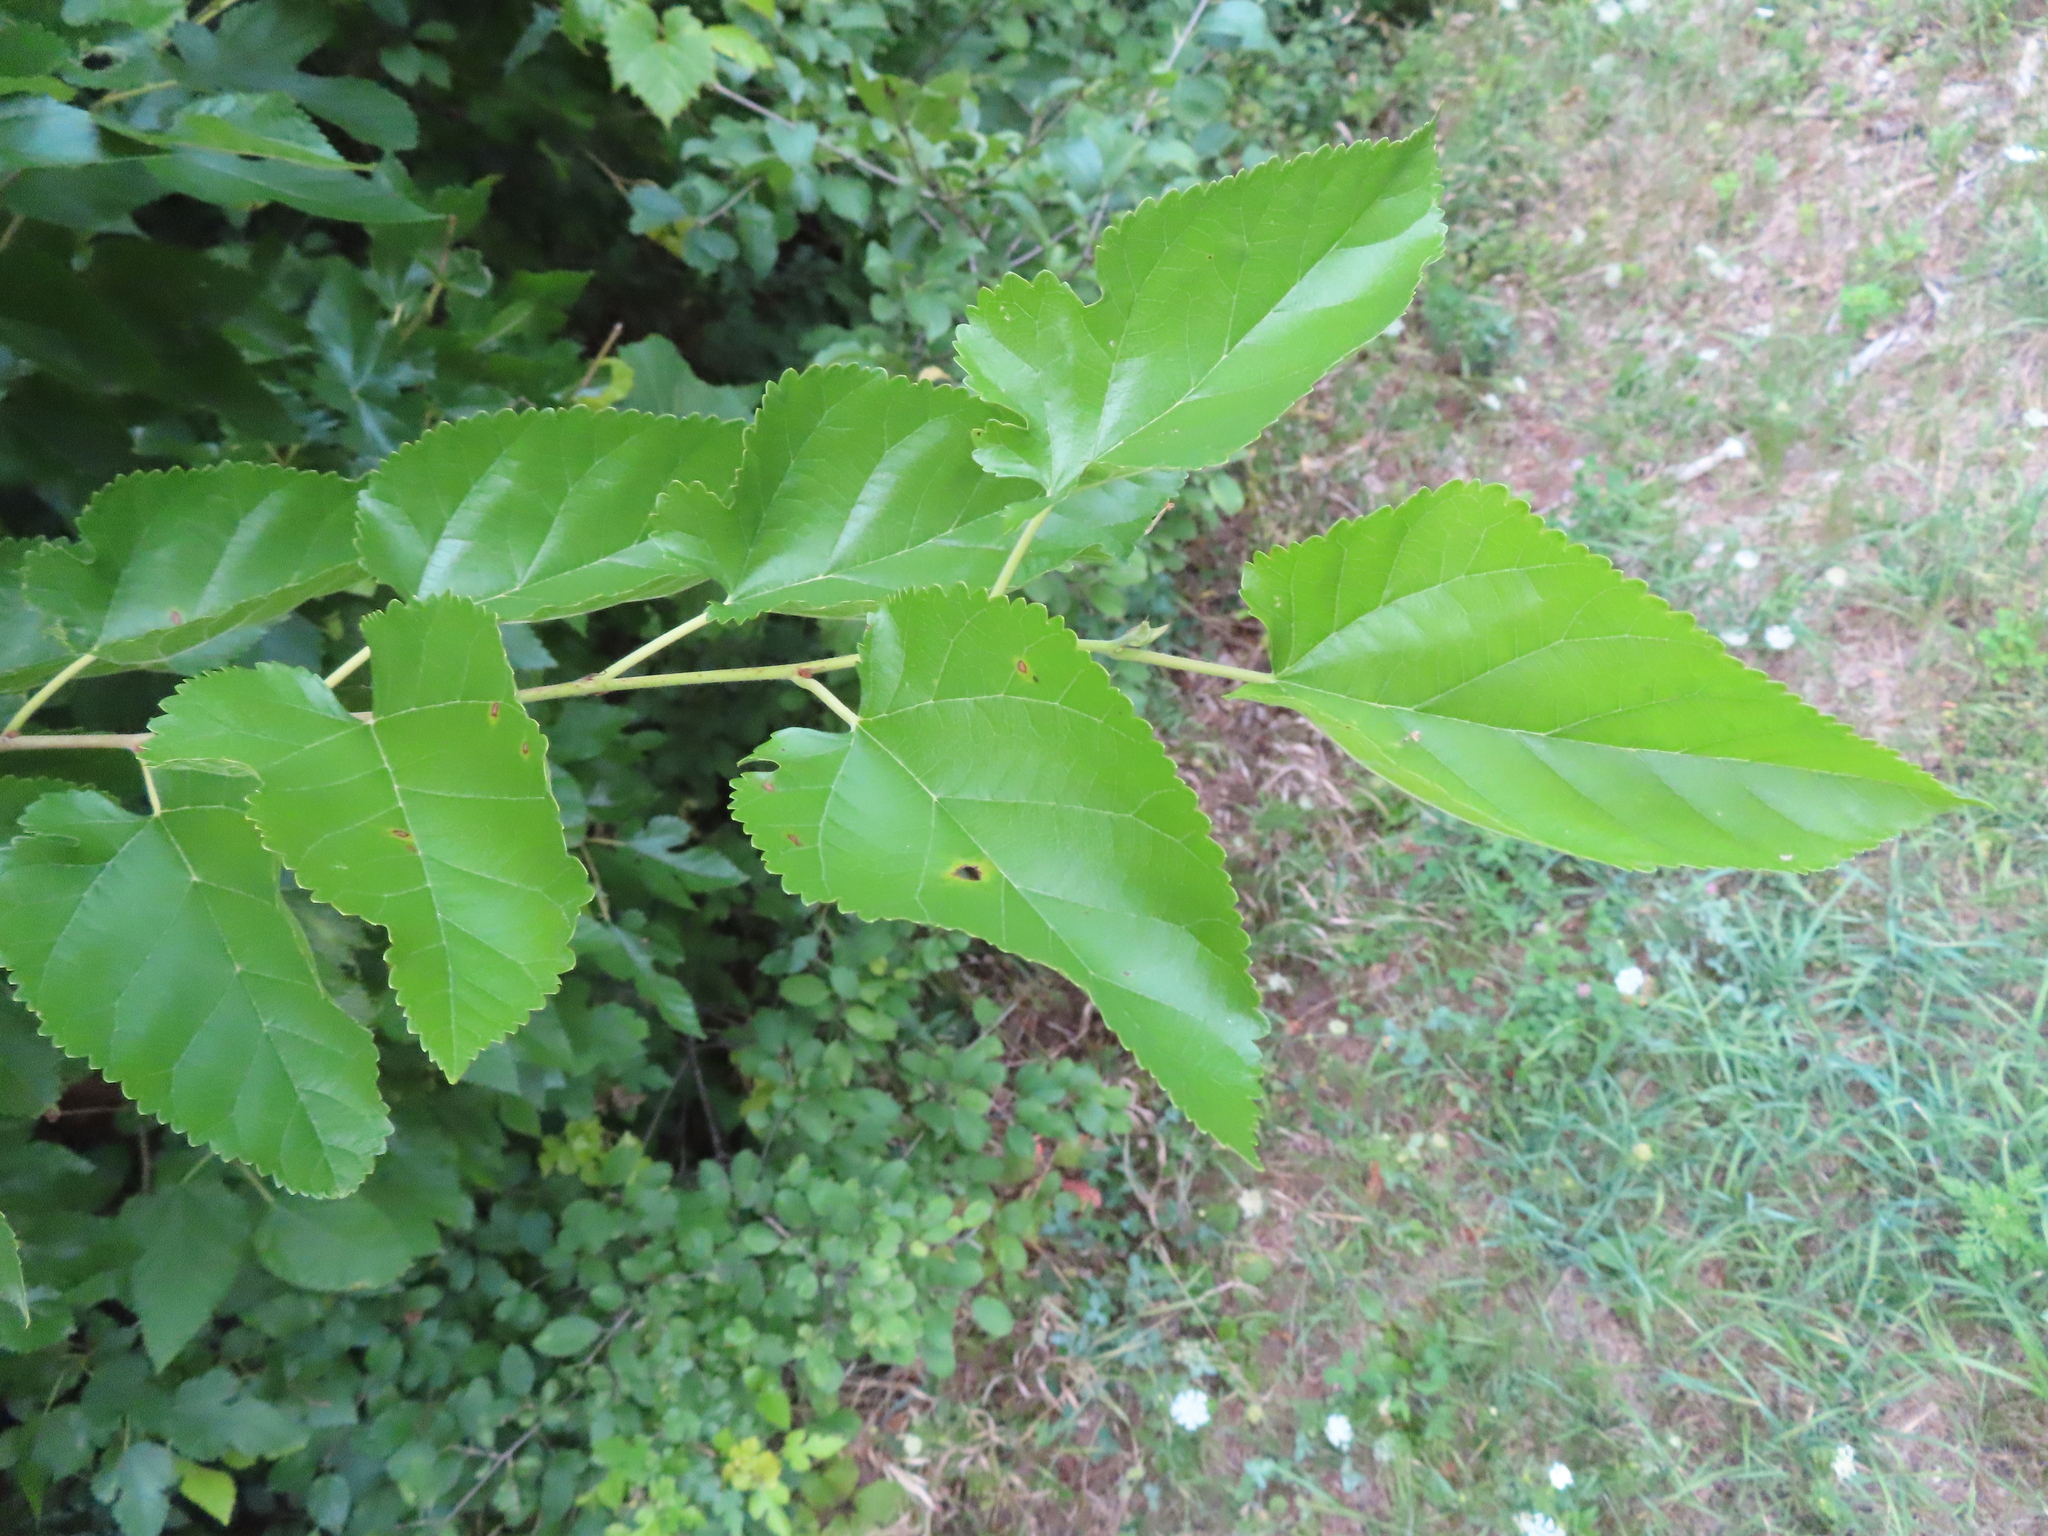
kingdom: Plantae
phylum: Tracheophyta
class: Magnoliopsida
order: Rosales
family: Moraceae
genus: Morus
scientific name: Morus alba
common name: White mulberry
